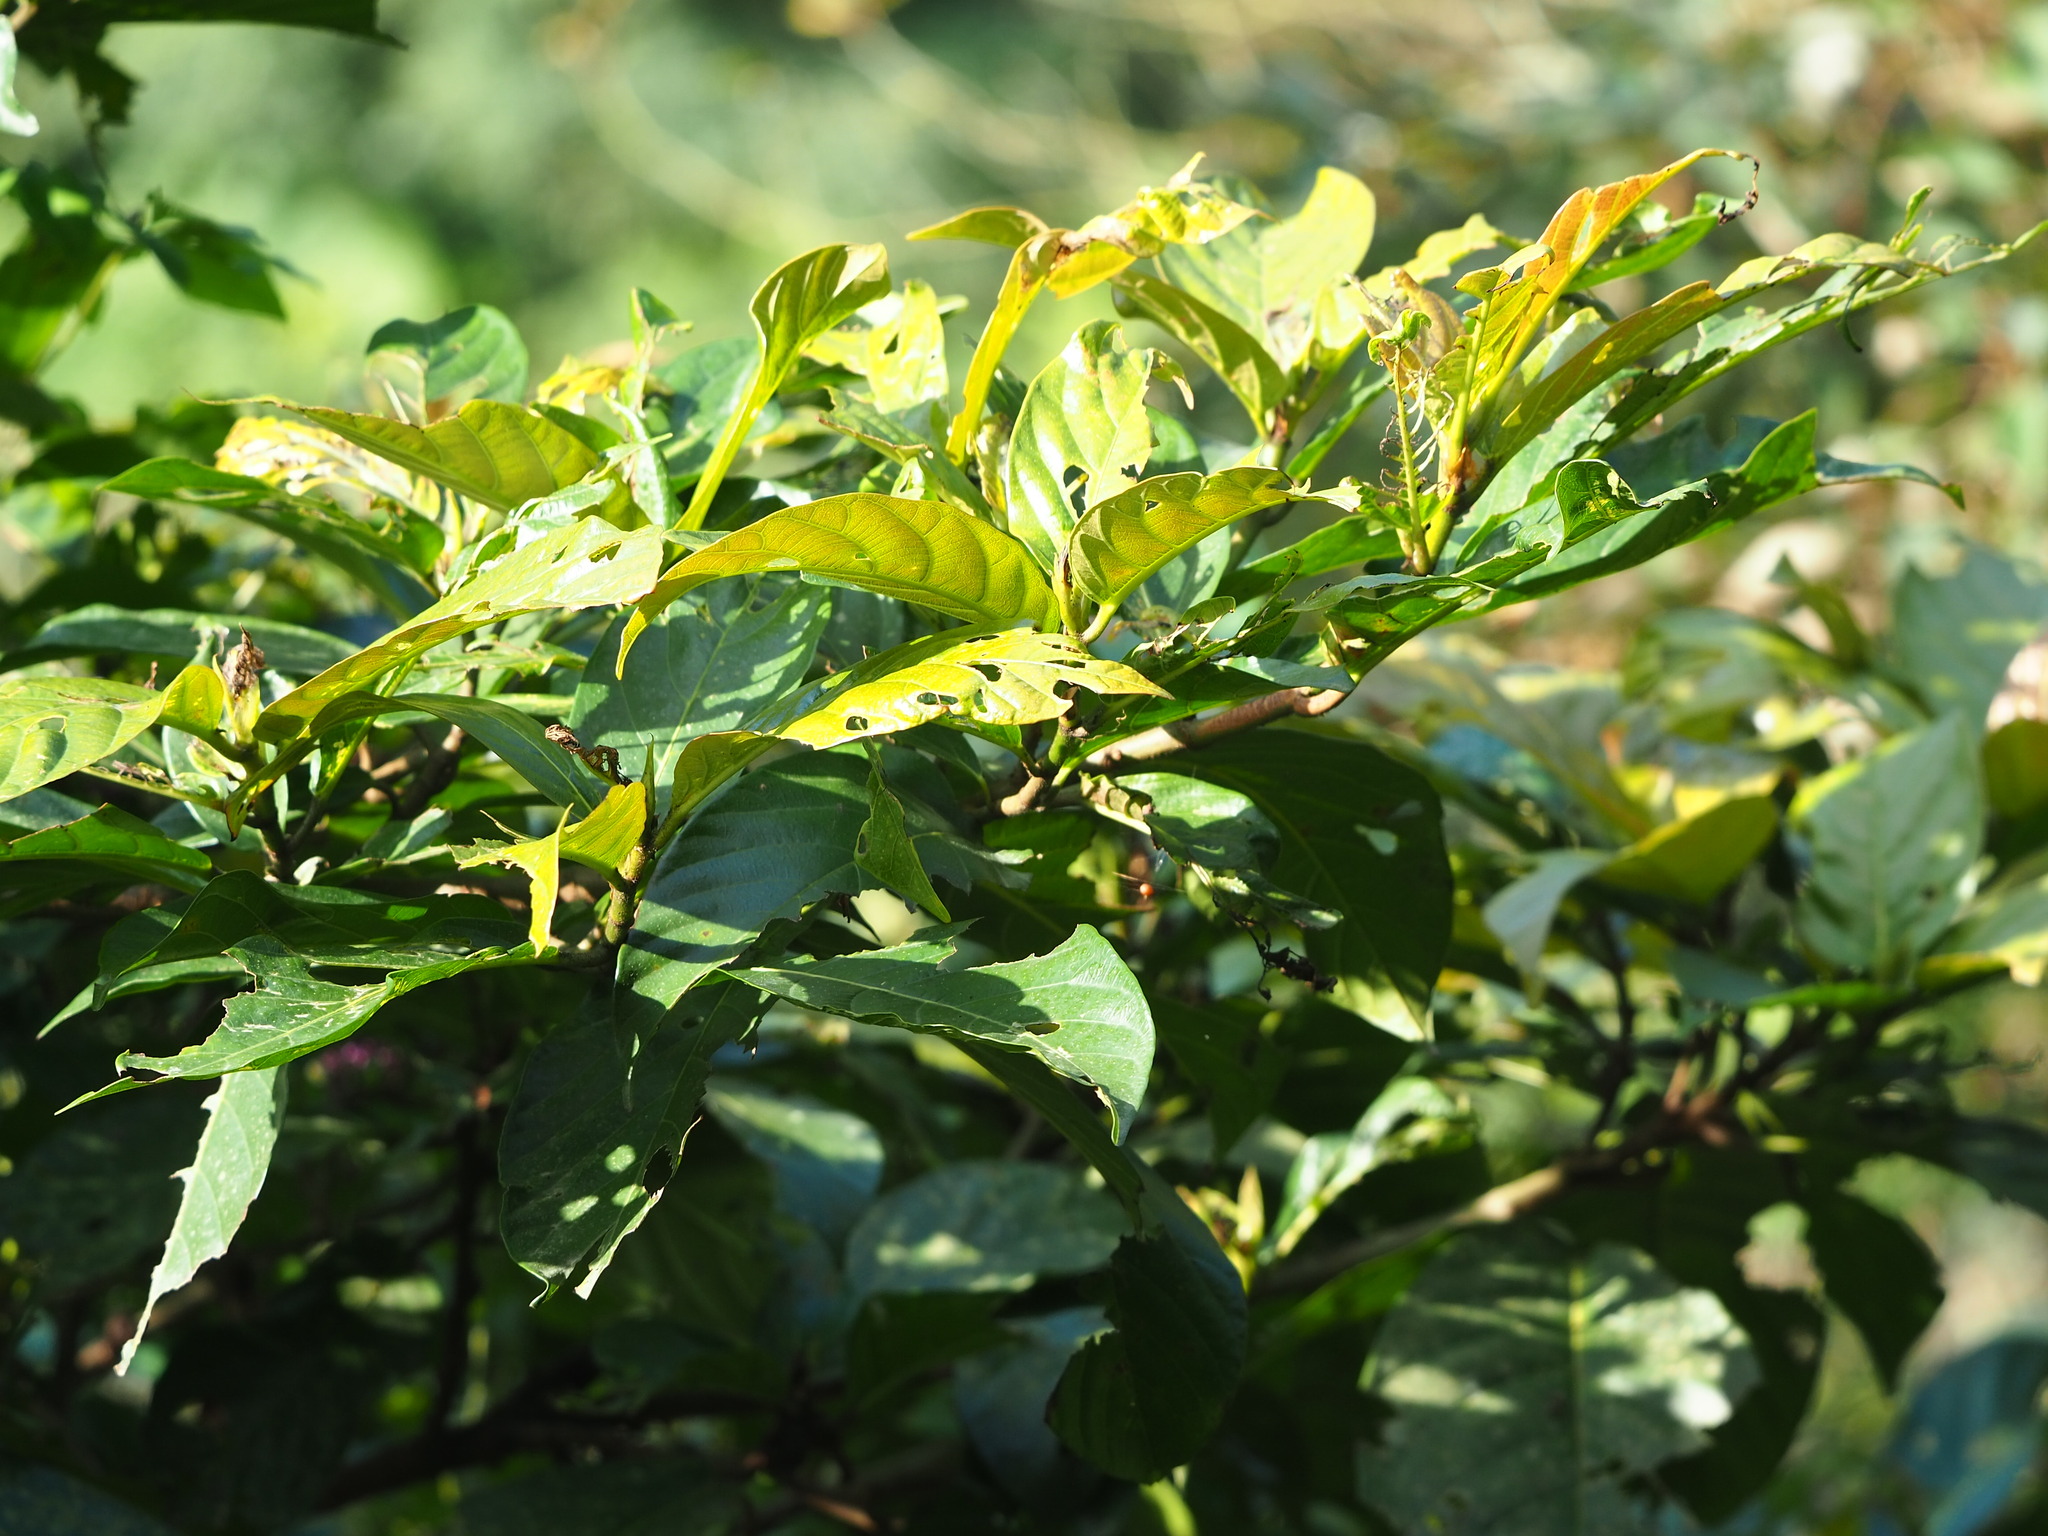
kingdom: Plantae
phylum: Tracheophyta
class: Magnoliopsida
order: Rosales
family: Moraceae
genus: Ficus
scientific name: Ficus benguetensis
